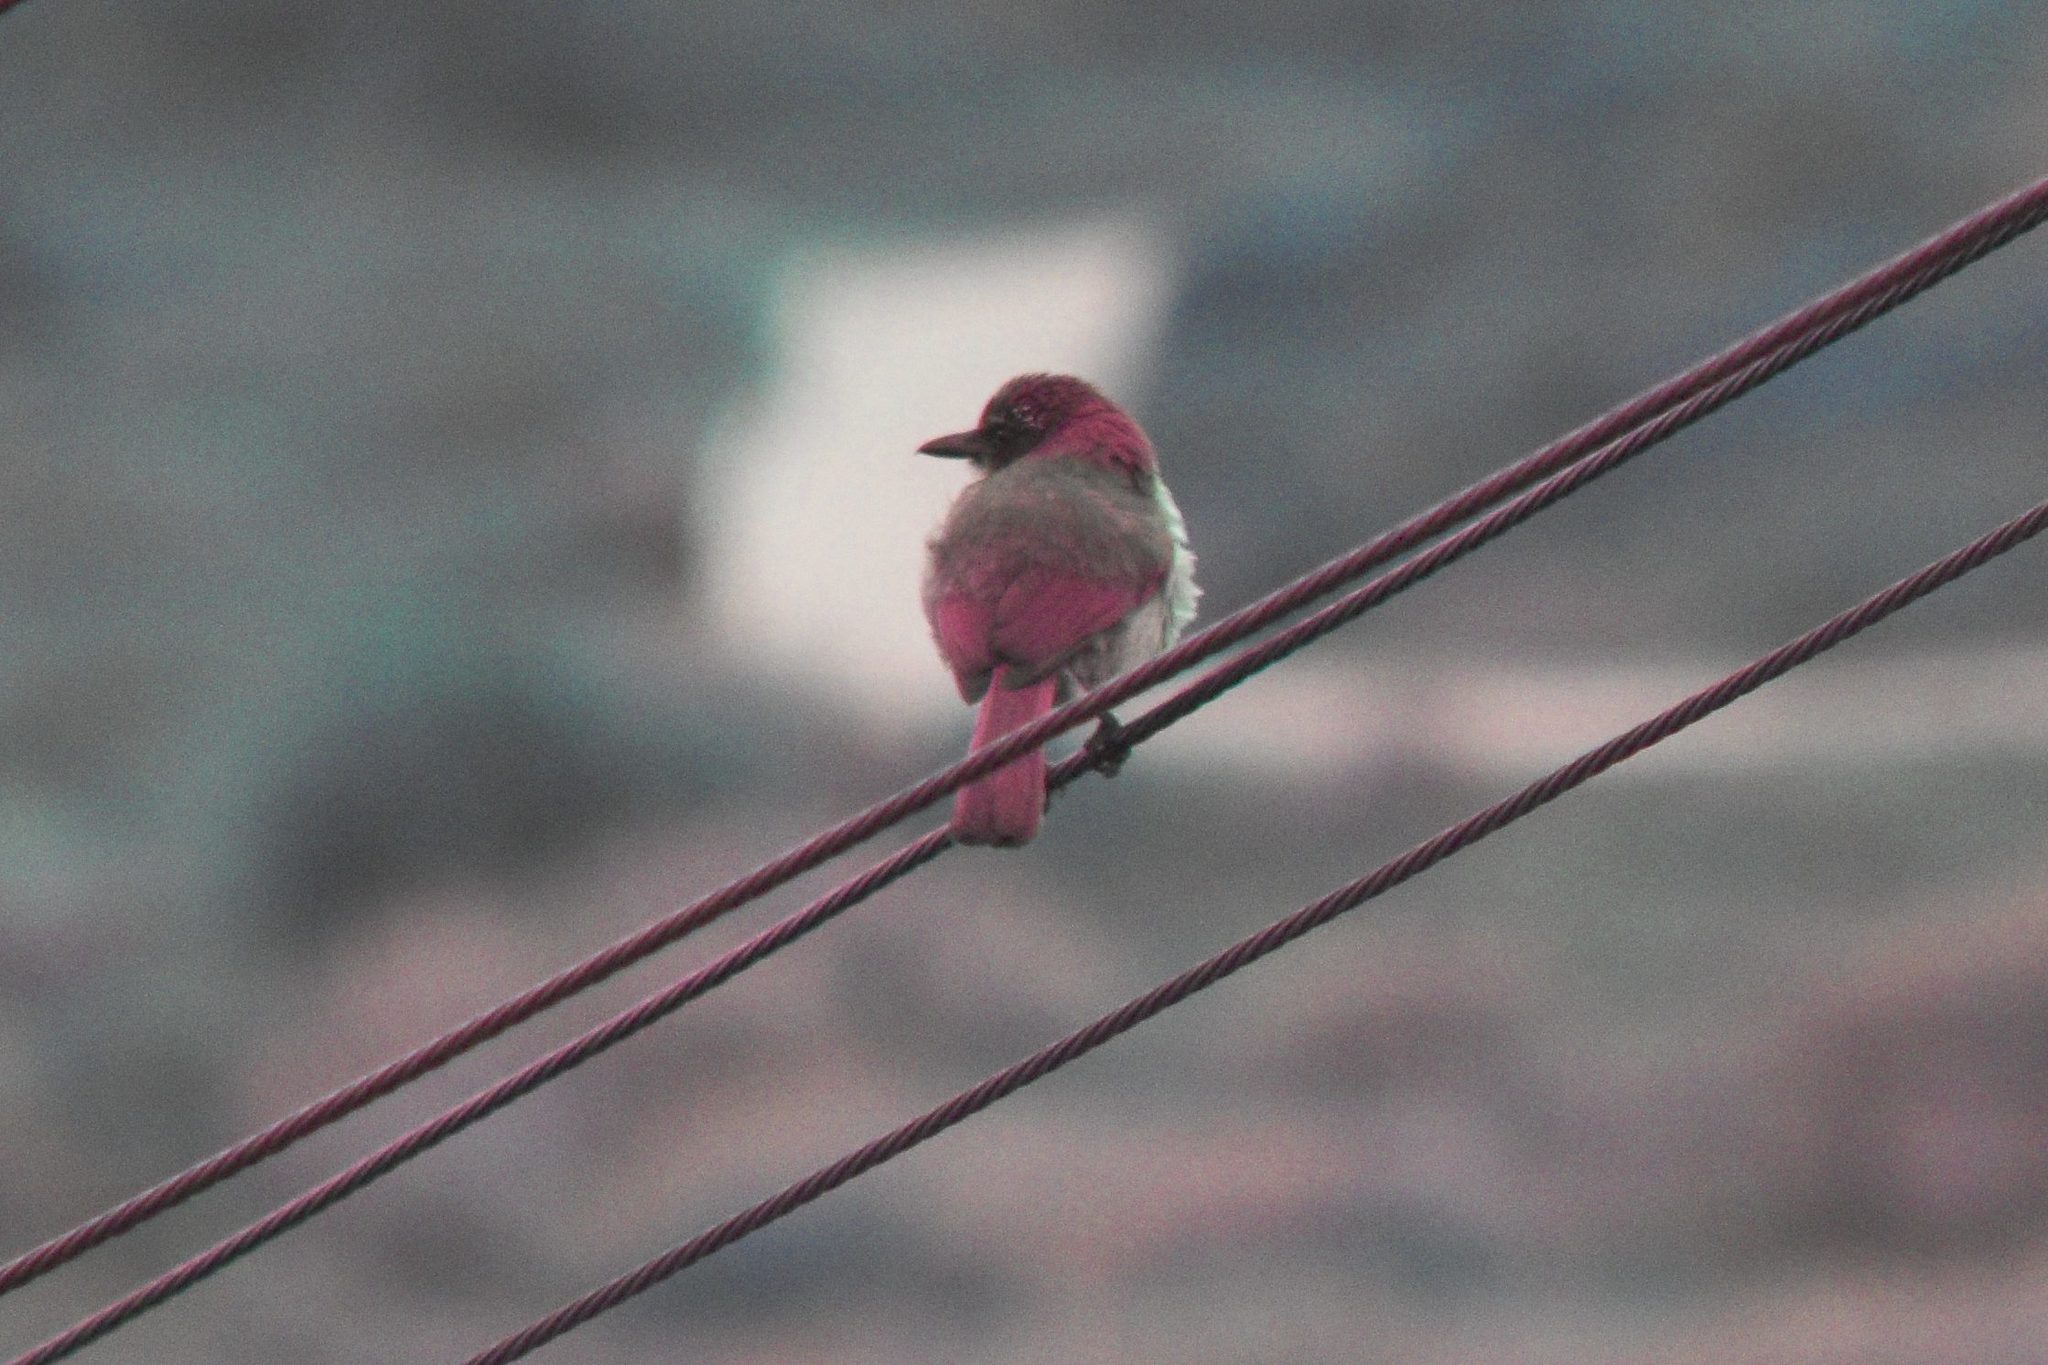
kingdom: Animalia
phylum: Chordata
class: Aves
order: Passeriformes
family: Corvidae
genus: Aphelocoma
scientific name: Aphelocoma californica
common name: California scrub-jay
